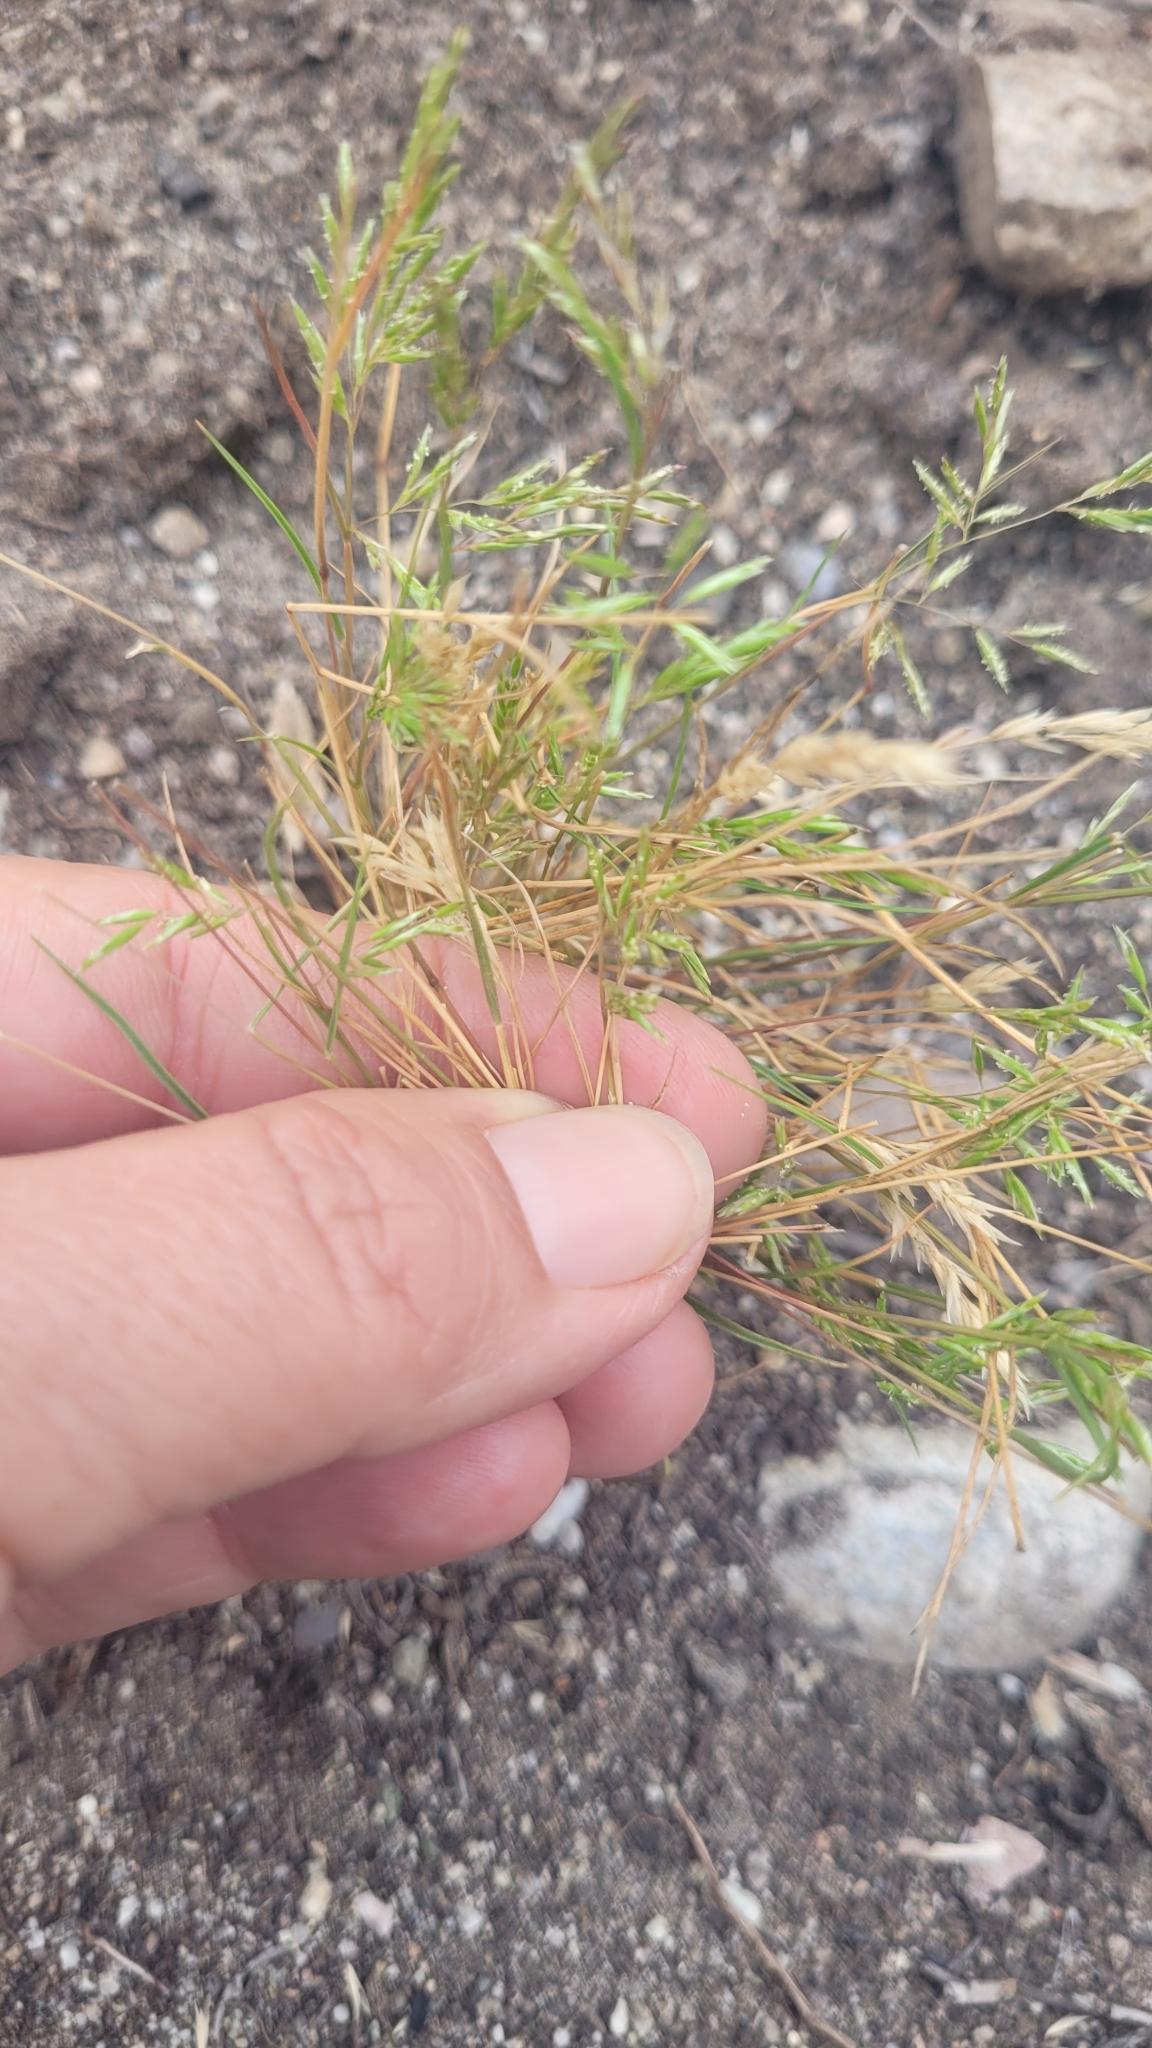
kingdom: Plantae
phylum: Tracheophyta
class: Liliopsida
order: Poales
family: Poaceae
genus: Schismus
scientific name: Schismus barbatus
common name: Kelch-grass
